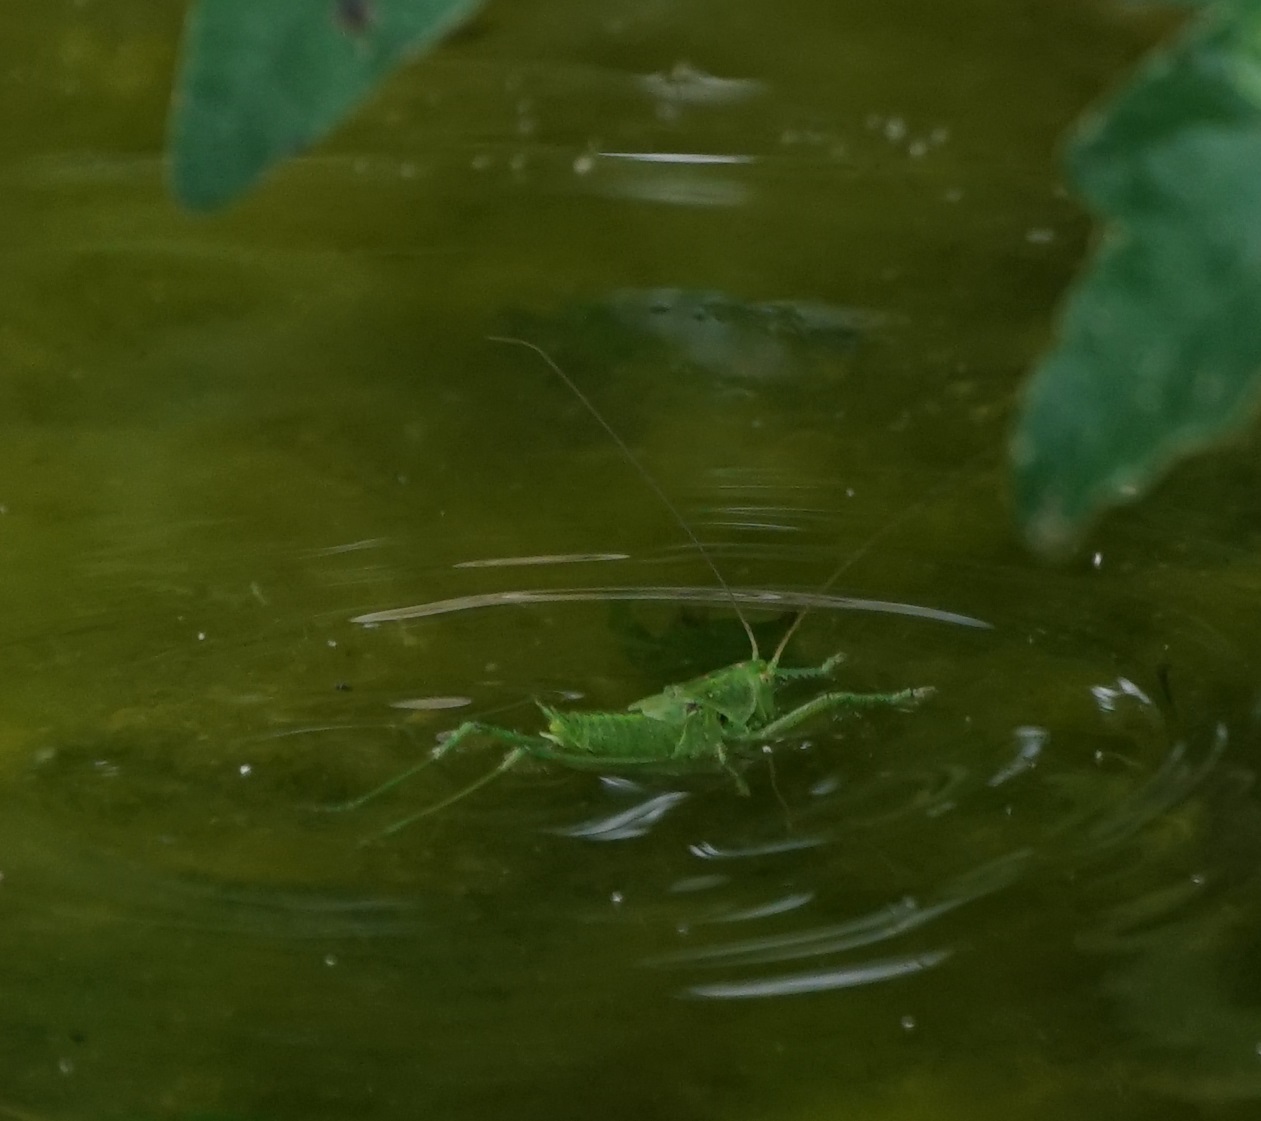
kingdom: Animalia
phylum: Arthropoda
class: Insecta
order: Orthoptera
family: Tettigoniidae
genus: Tettigonia
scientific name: Tettigonia viridissima
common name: Great green bush-cricket
